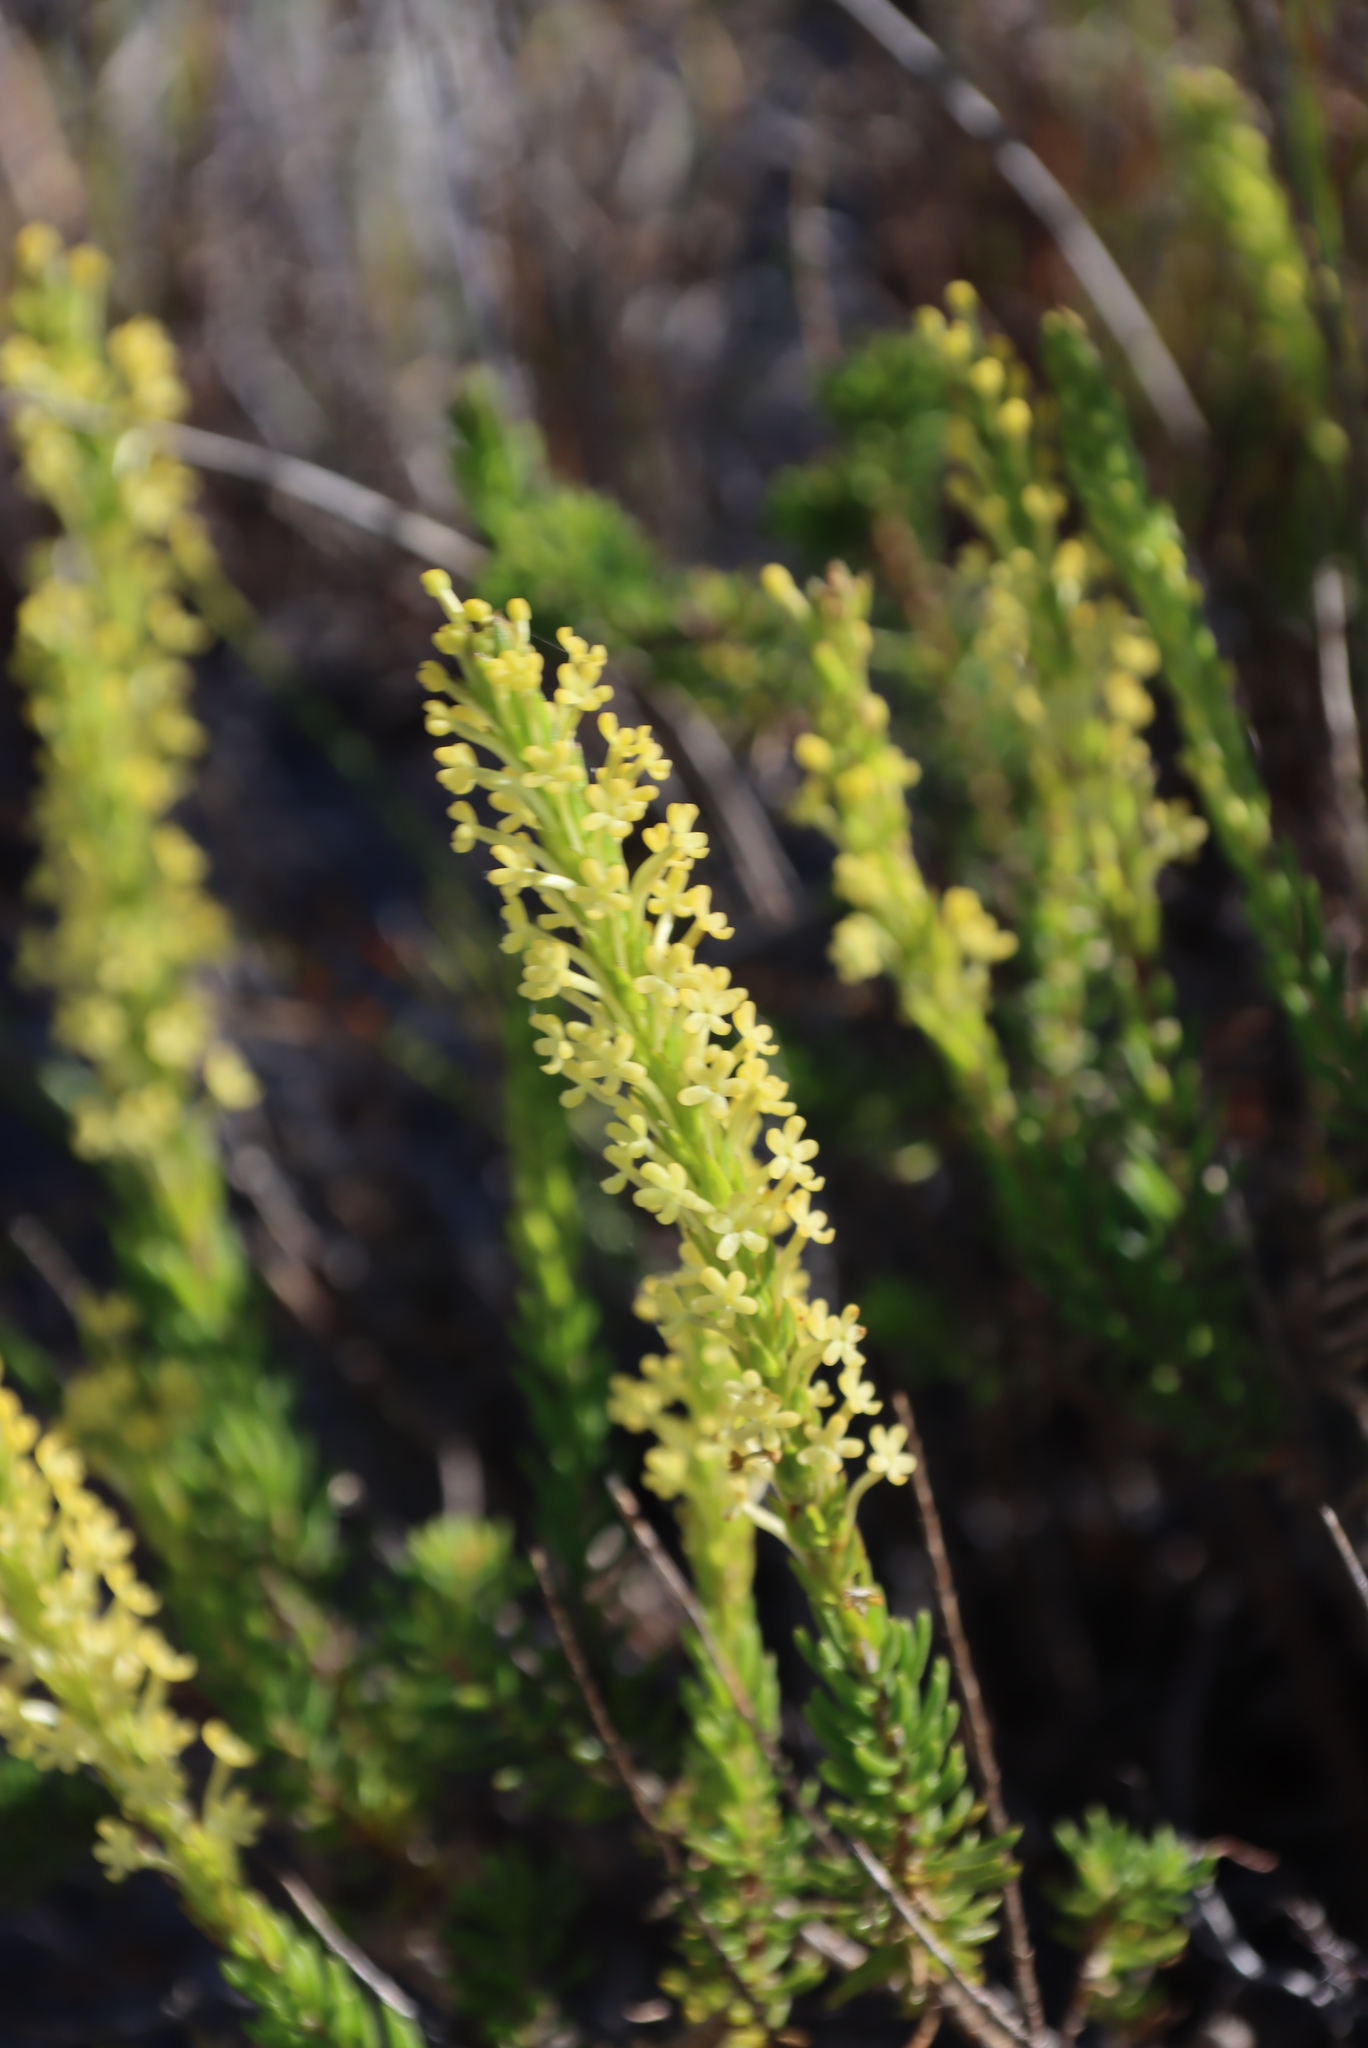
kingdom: Plantae
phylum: Tracheophyta
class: Magnoliopsida
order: Lamiales
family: Scrophulariaceae
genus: Microdon
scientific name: Microdon dubius
